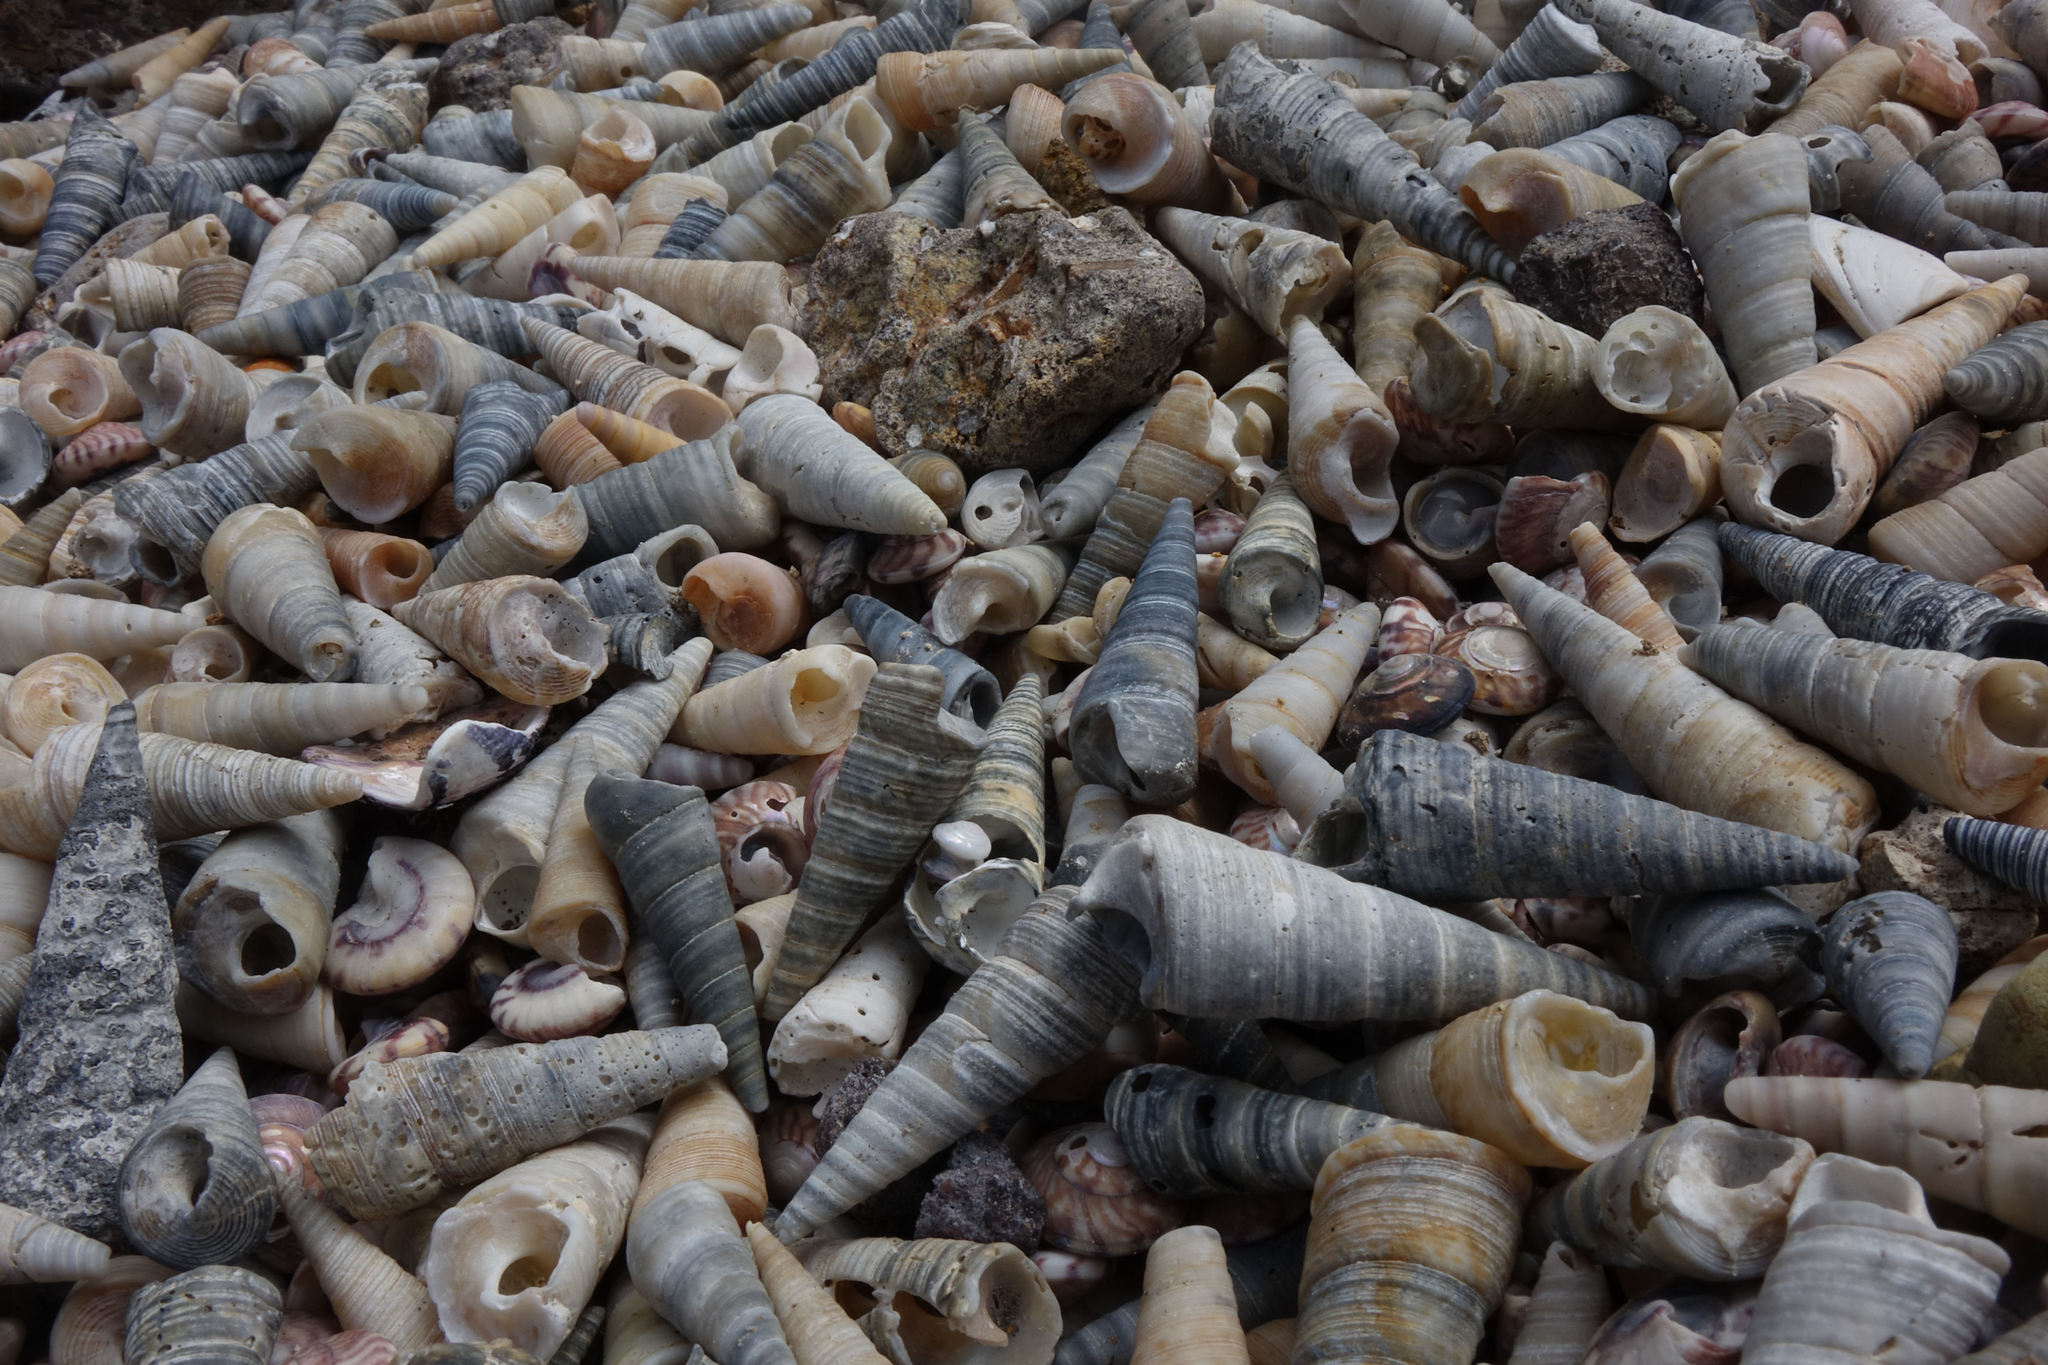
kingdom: Animalia
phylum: Mollusca
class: Gastropoda
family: Turritellidae
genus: Maoricolpus
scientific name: Maoricolpus roseus
